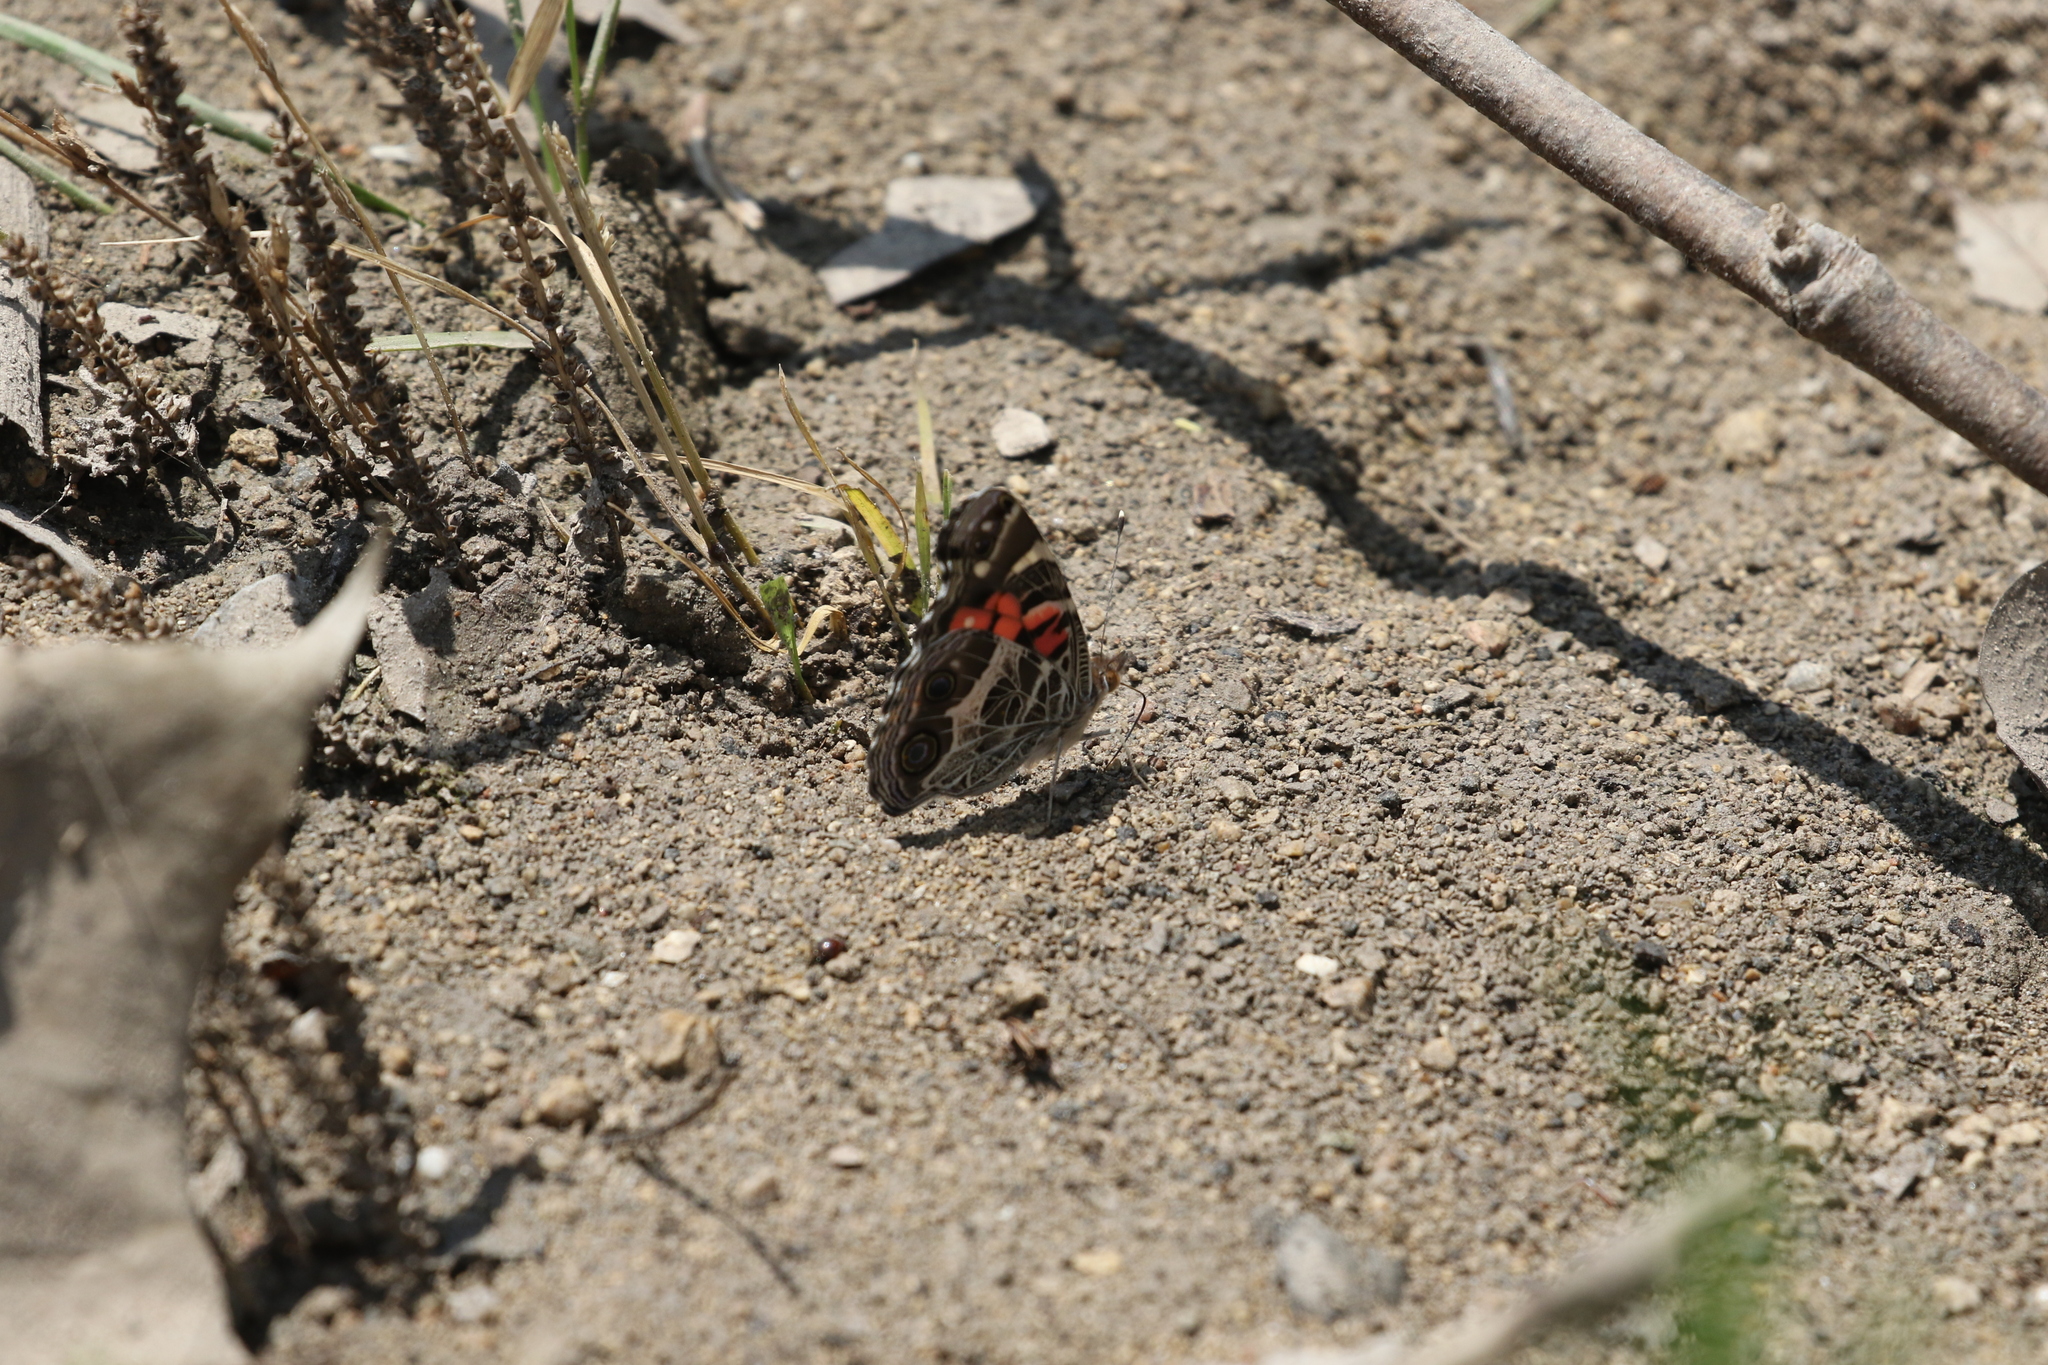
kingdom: Animalia
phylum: Arthropoda
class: Insecta
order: Lepidoptera
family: Nymphalidae
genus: Vanessa
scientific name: Vanessa virginiensis
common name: American lady
